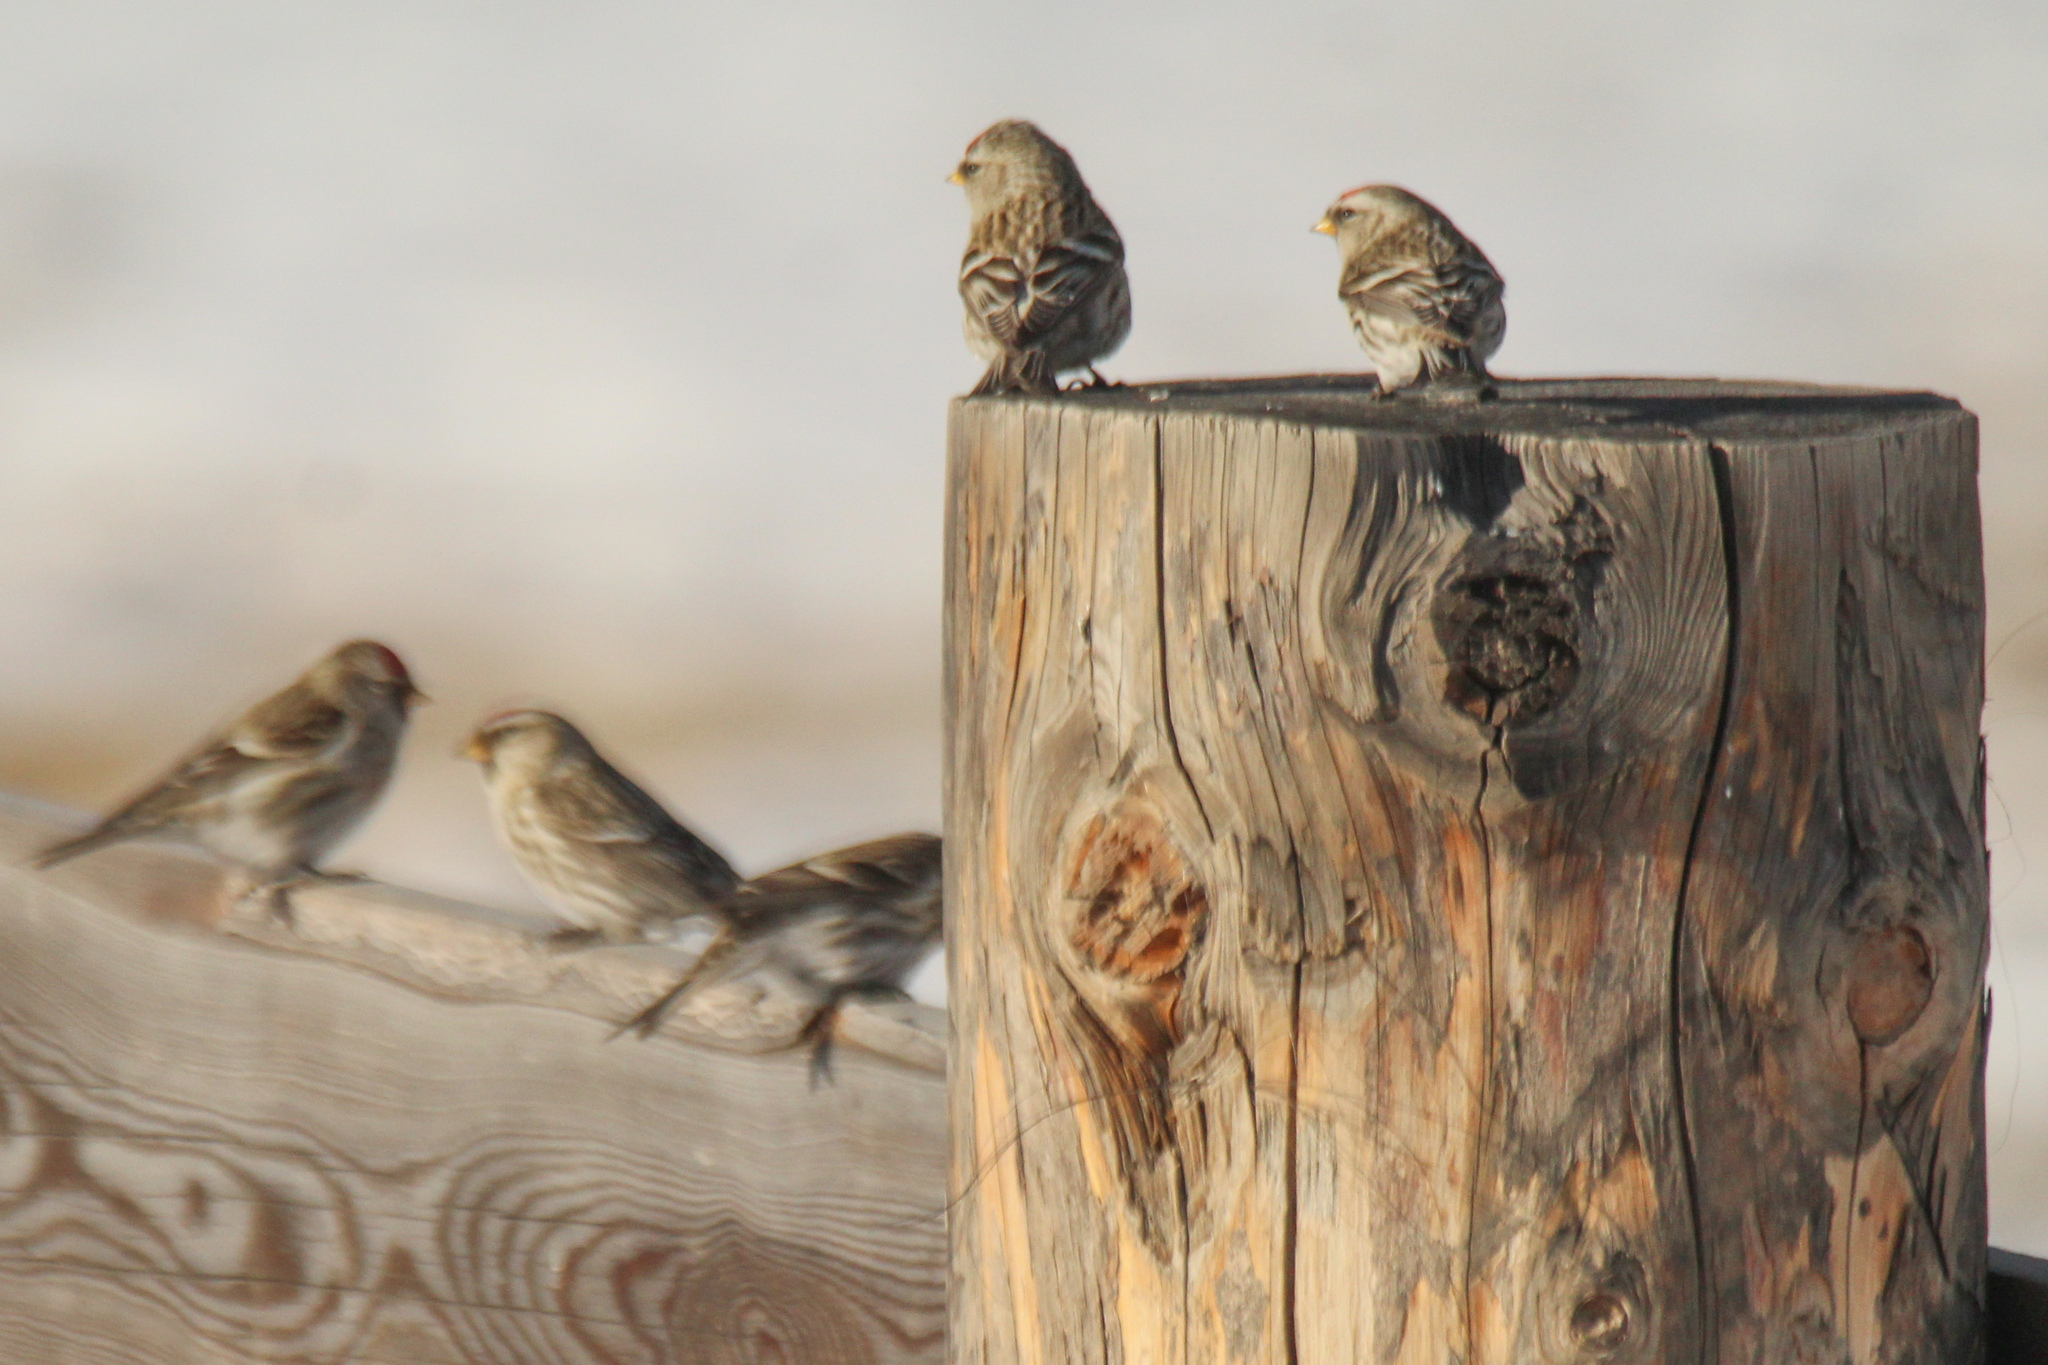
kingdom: Animalia
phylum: Chordata
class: Aves
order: Passeriformes
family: Fringillidae
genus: Acanthis
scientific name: Acanthis flammea
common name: Common redpoll
